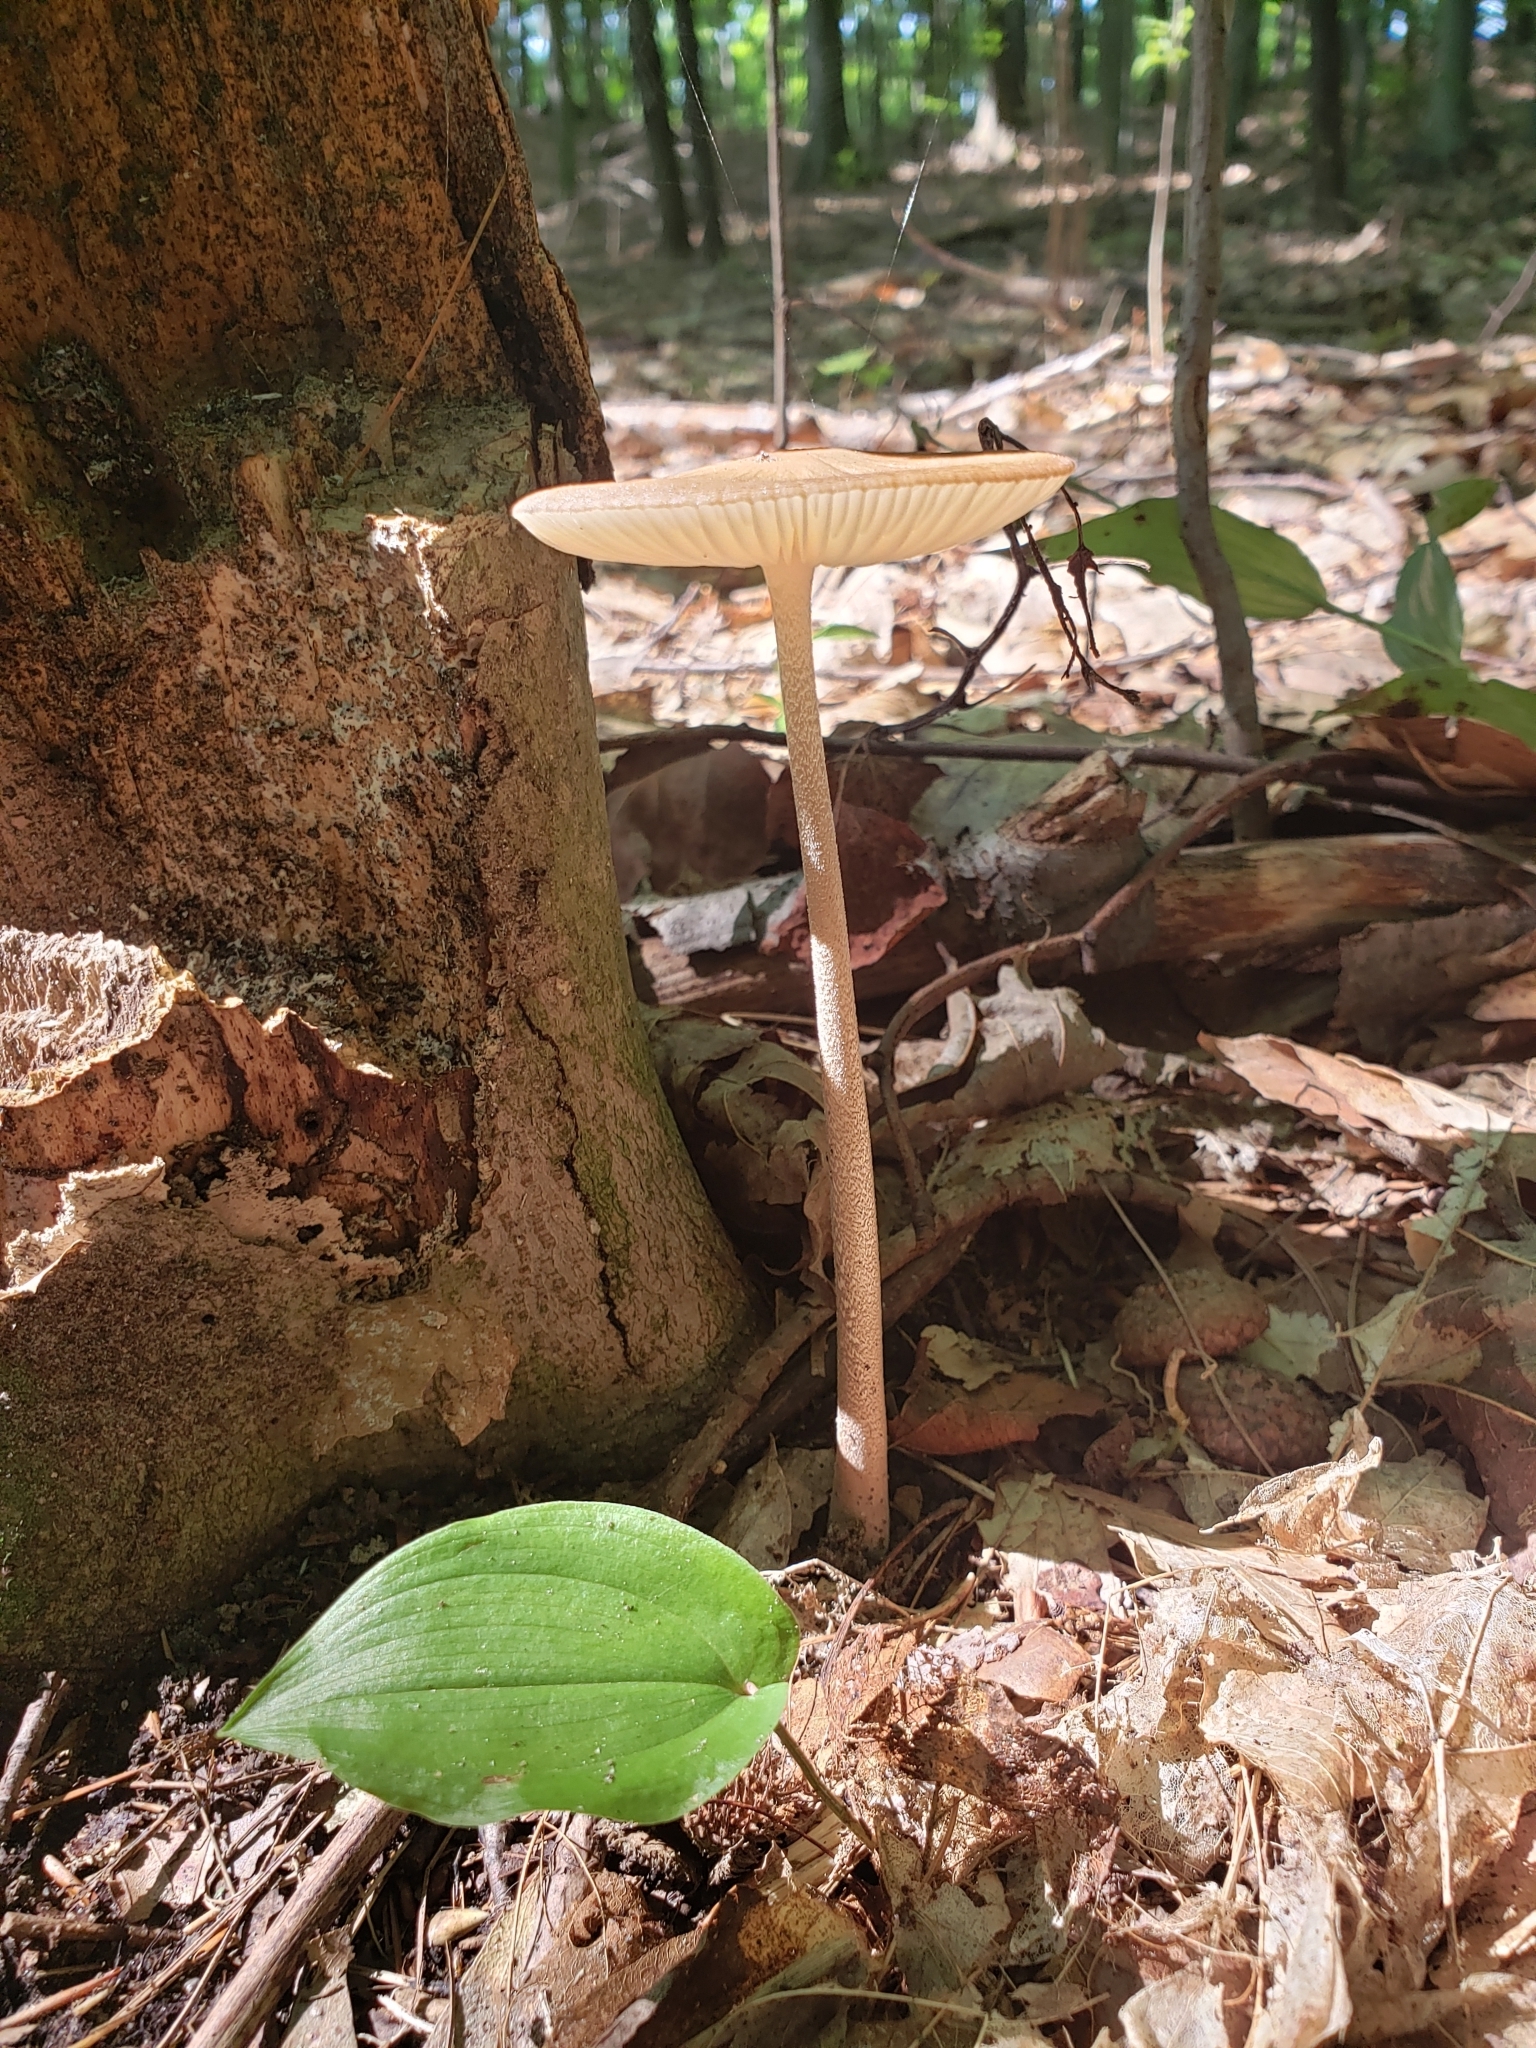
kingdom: Fungi
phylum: Basidiomycota
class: Agaricomycetes
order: Agaricales
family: Physalacriaceae
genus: Hymenopellis
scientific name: Hymenopellis furfuracea
